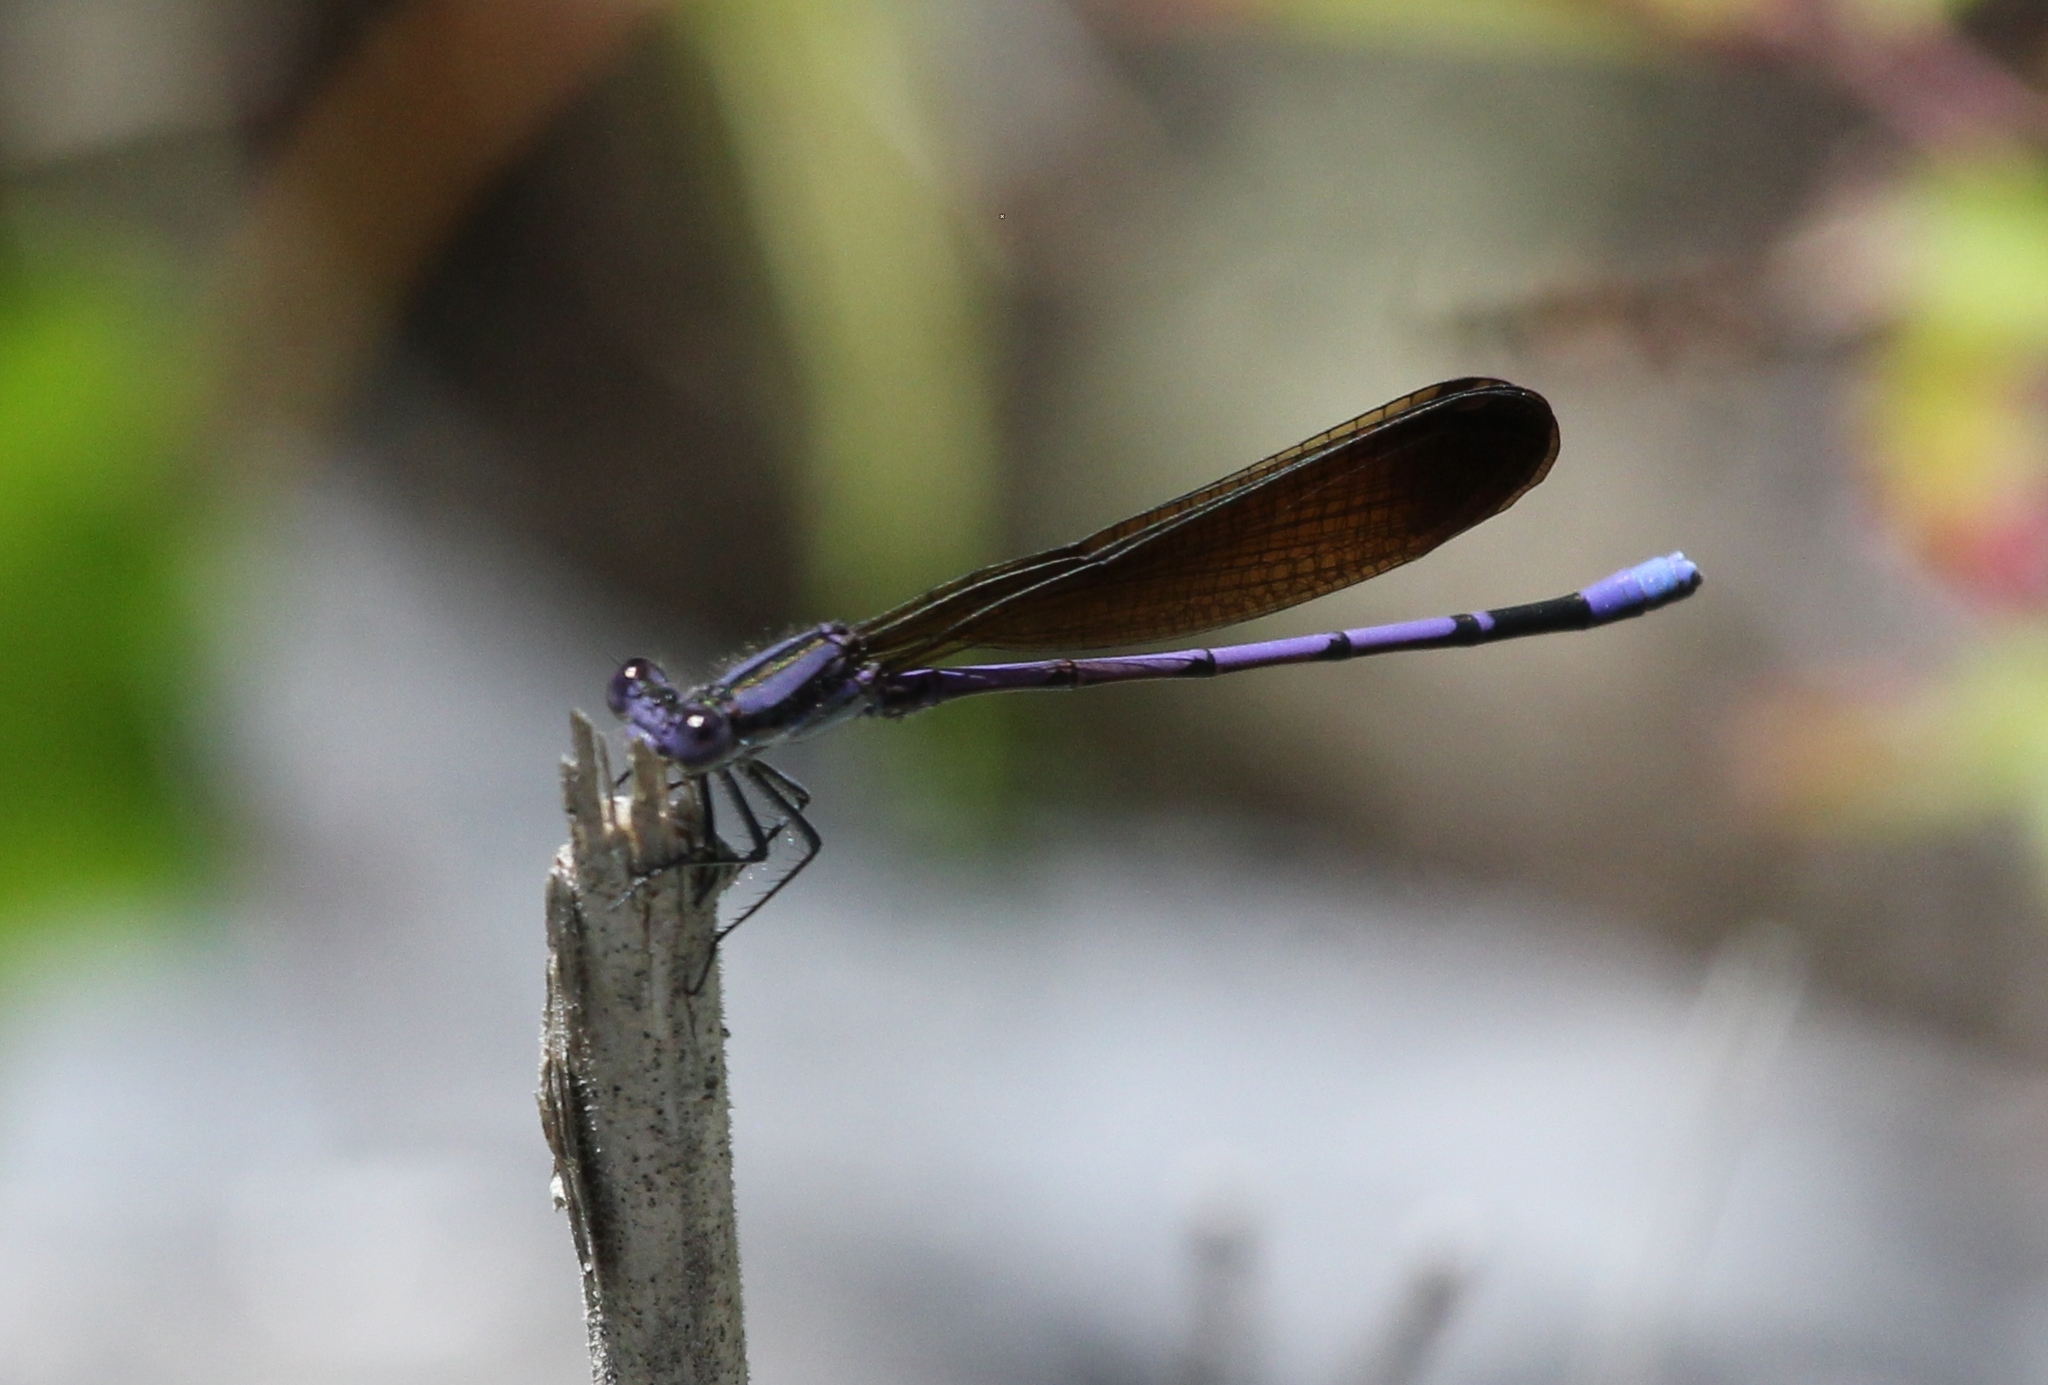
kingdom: Animalia
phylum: Arthropoda
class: Insecta
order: Odonata
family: Coenagrionidae
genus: Argia
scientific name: Argia fumipennis
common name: Variable dancer
